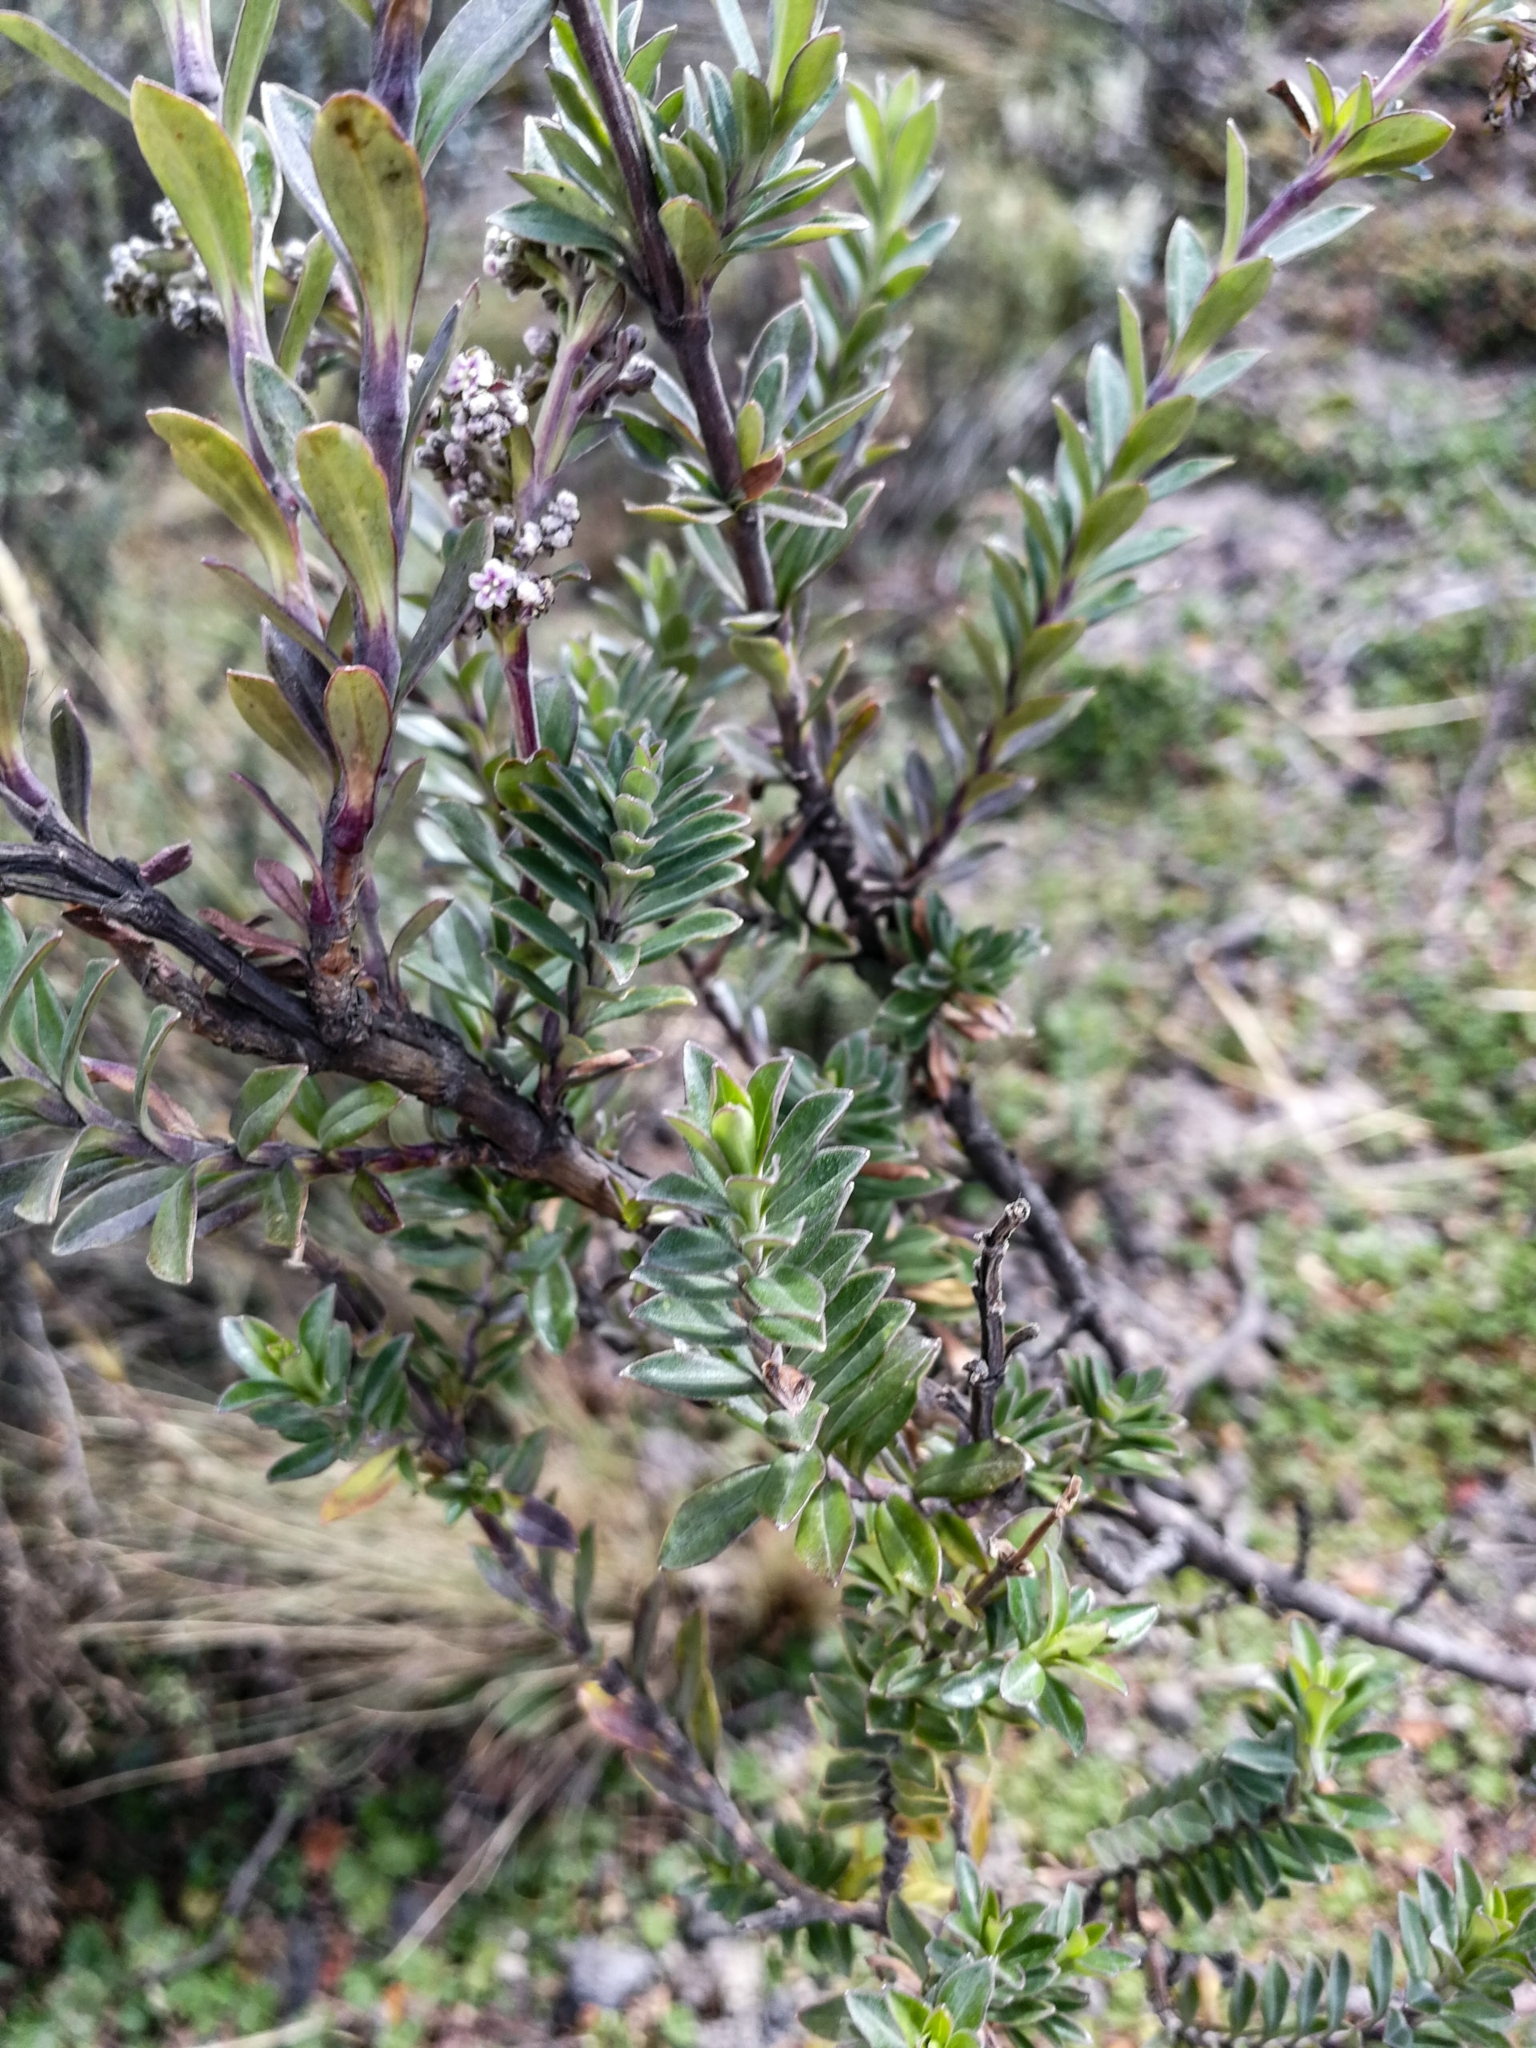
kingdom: Plantae
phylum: Tracheophyta
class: Magnoliopsida
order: Dipsacales
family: Caprifoliaceae
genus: Valeriana
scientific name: Valeriana microphylla
